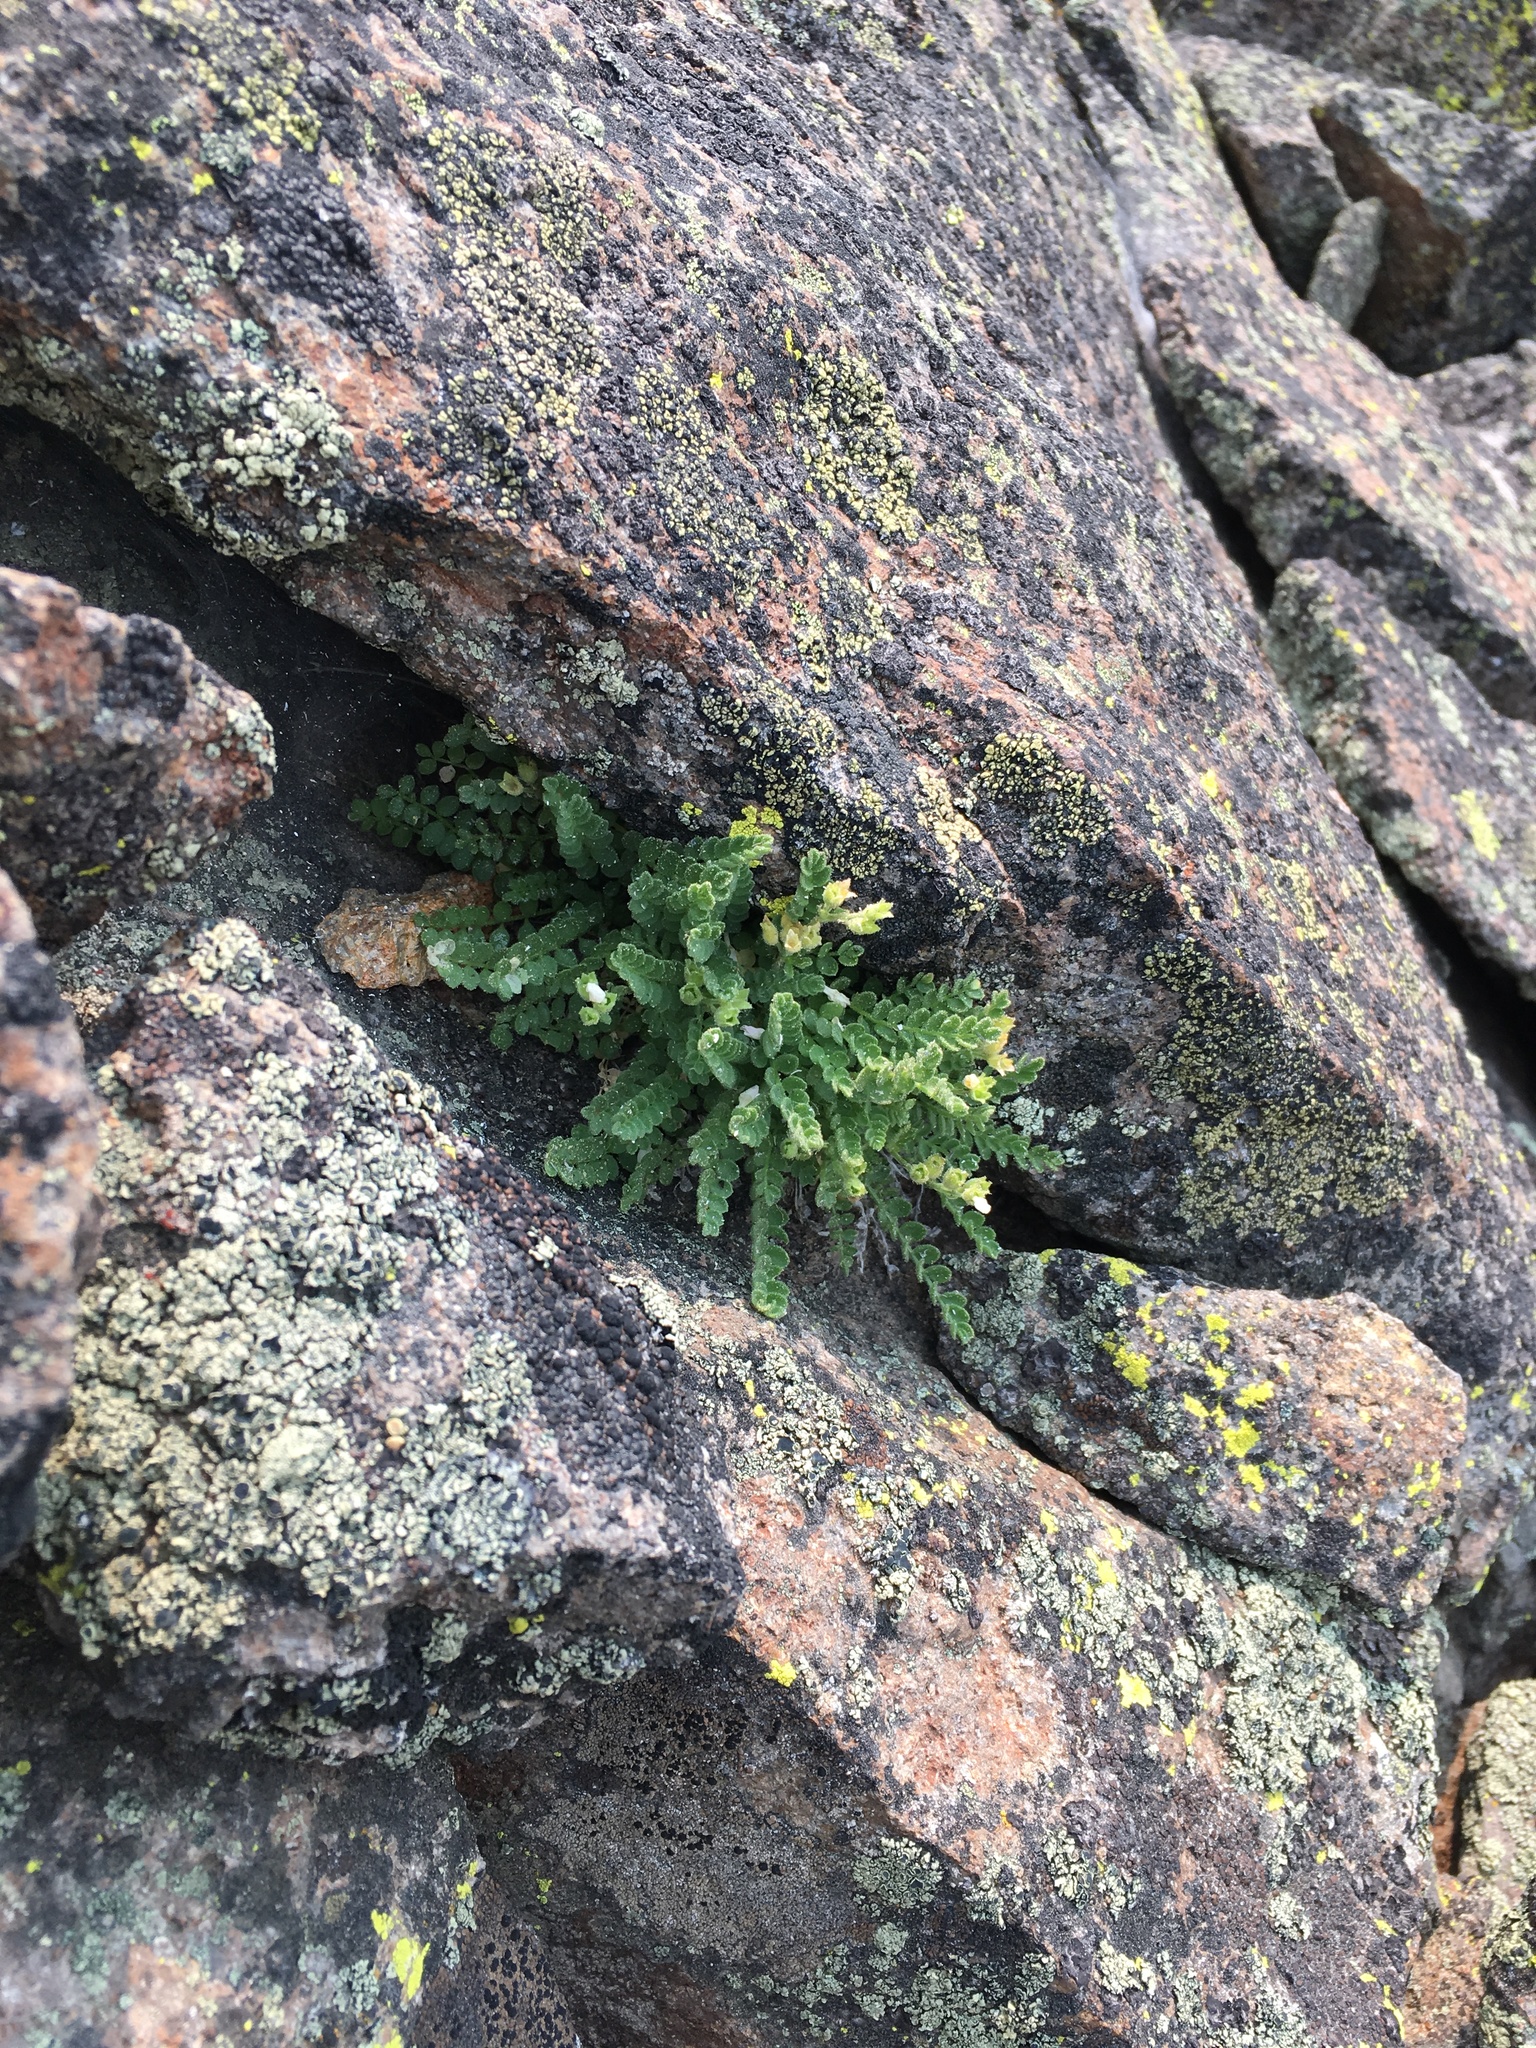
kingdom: Plantae
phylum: Tracheophyta
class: Magnoliopsida
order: Ericales
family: Polemoniaceae
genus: Polemonium
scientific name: Polemonium pulcherrimum
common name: Short jacob's-ladder
